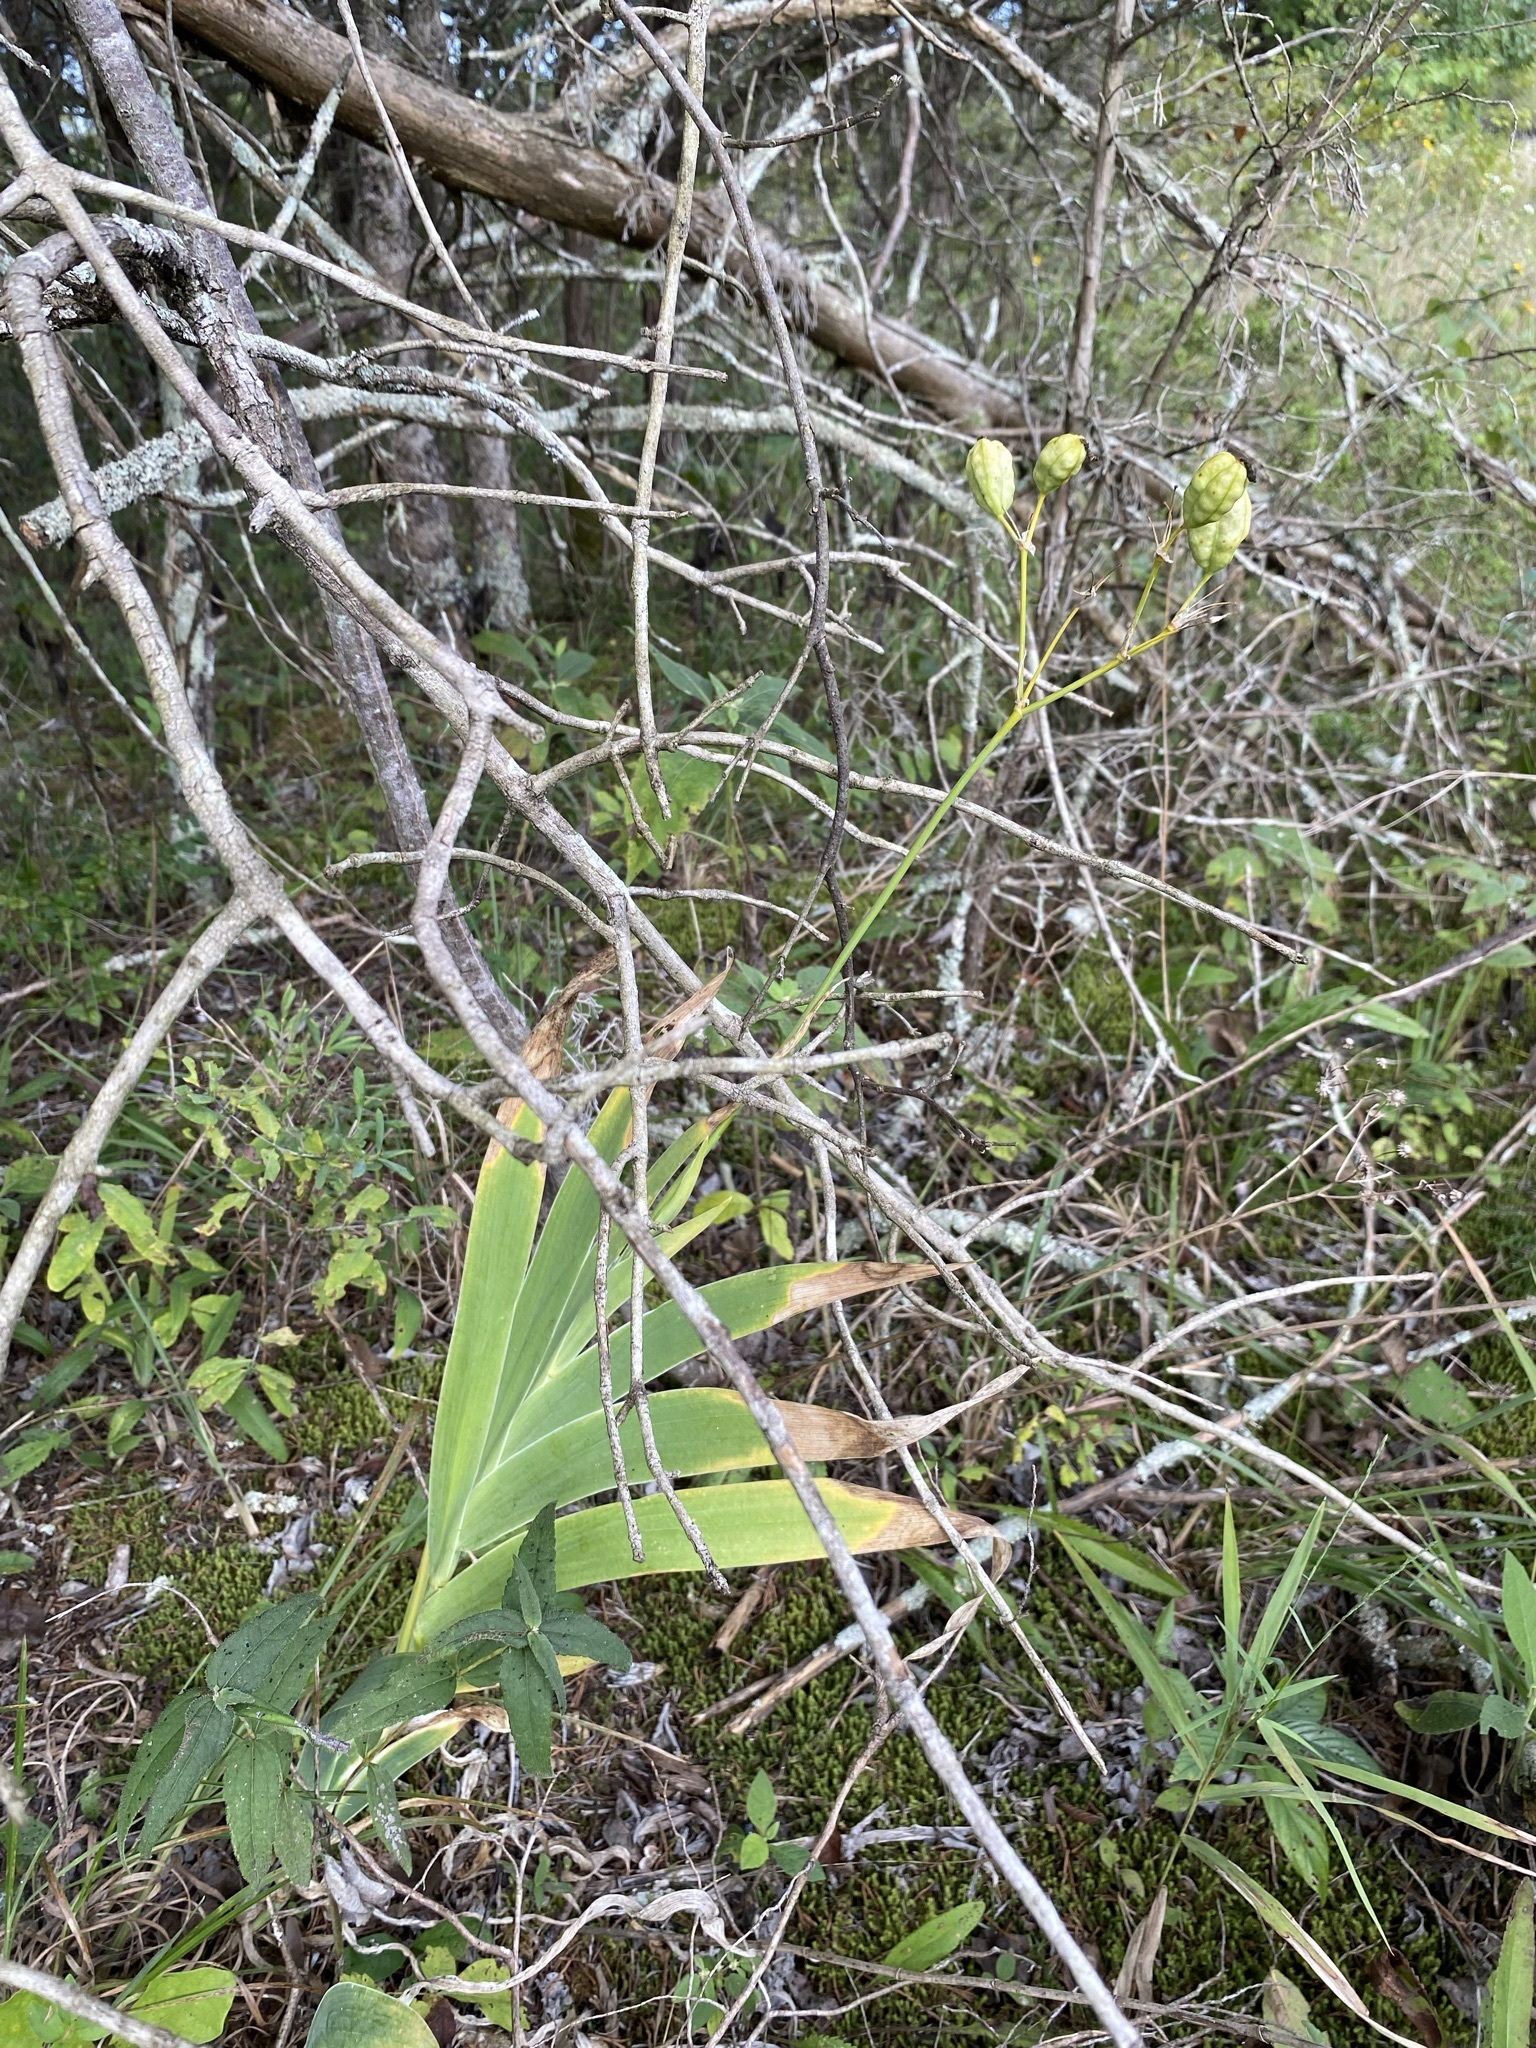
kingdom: Plantae
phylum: Tracheophyta
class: Liliopsida
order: Asparagales
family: Iridaceae
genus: Iris
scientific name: Iris domestica
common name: Belamcanda
